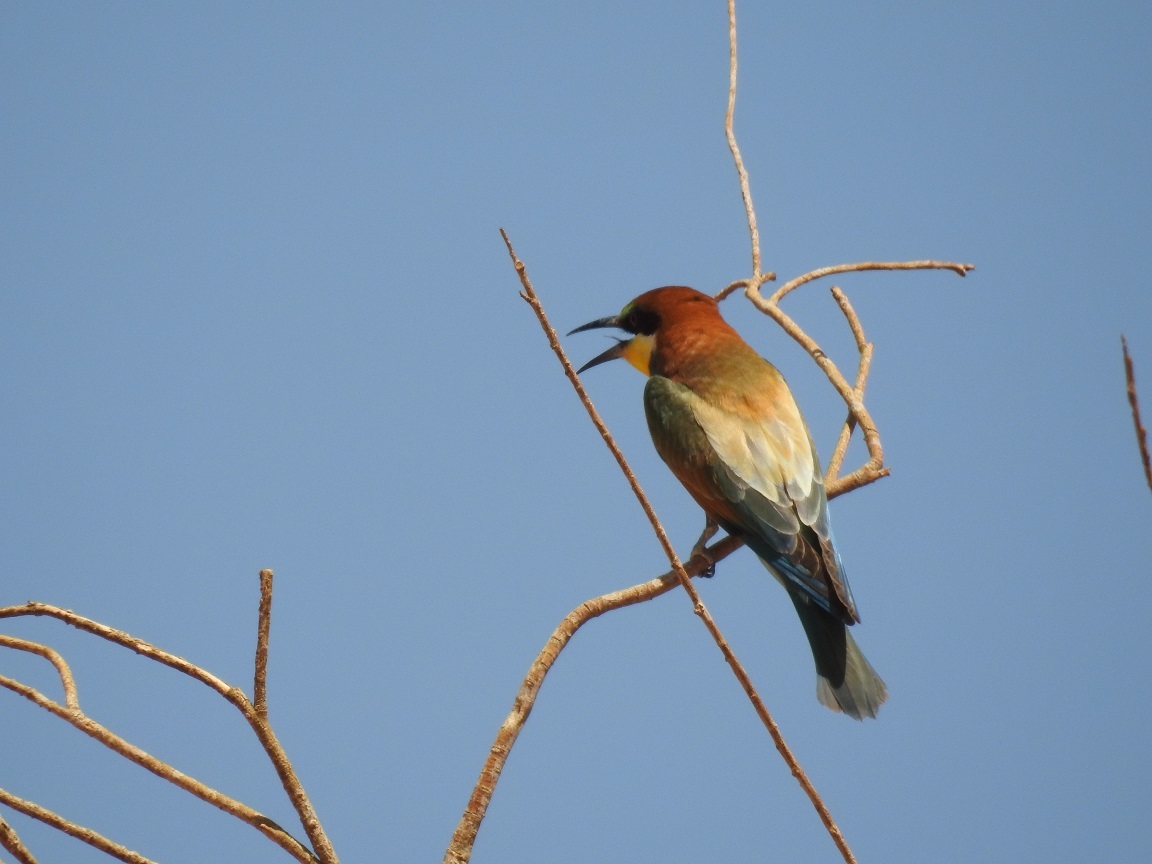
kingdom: Animalia
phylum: Chordata
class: Aves
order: Coraciiformes
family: Meropidae
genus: Merops
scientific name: Merops apiaster
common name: European bee-eater
